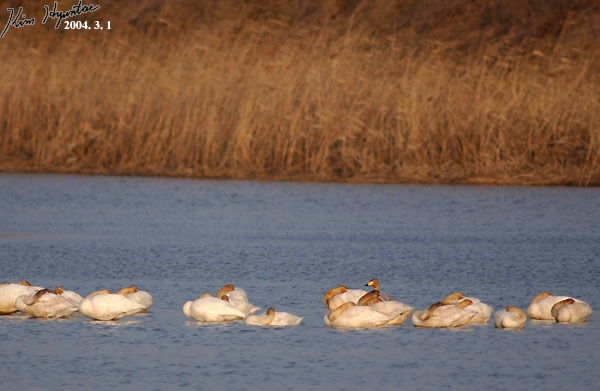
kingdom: Animalia
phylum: Chordata
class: Aves
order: Anseriformes
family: Anatidae
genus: Cygnus
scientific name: Cygnus cygnus
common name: Whooper swan
